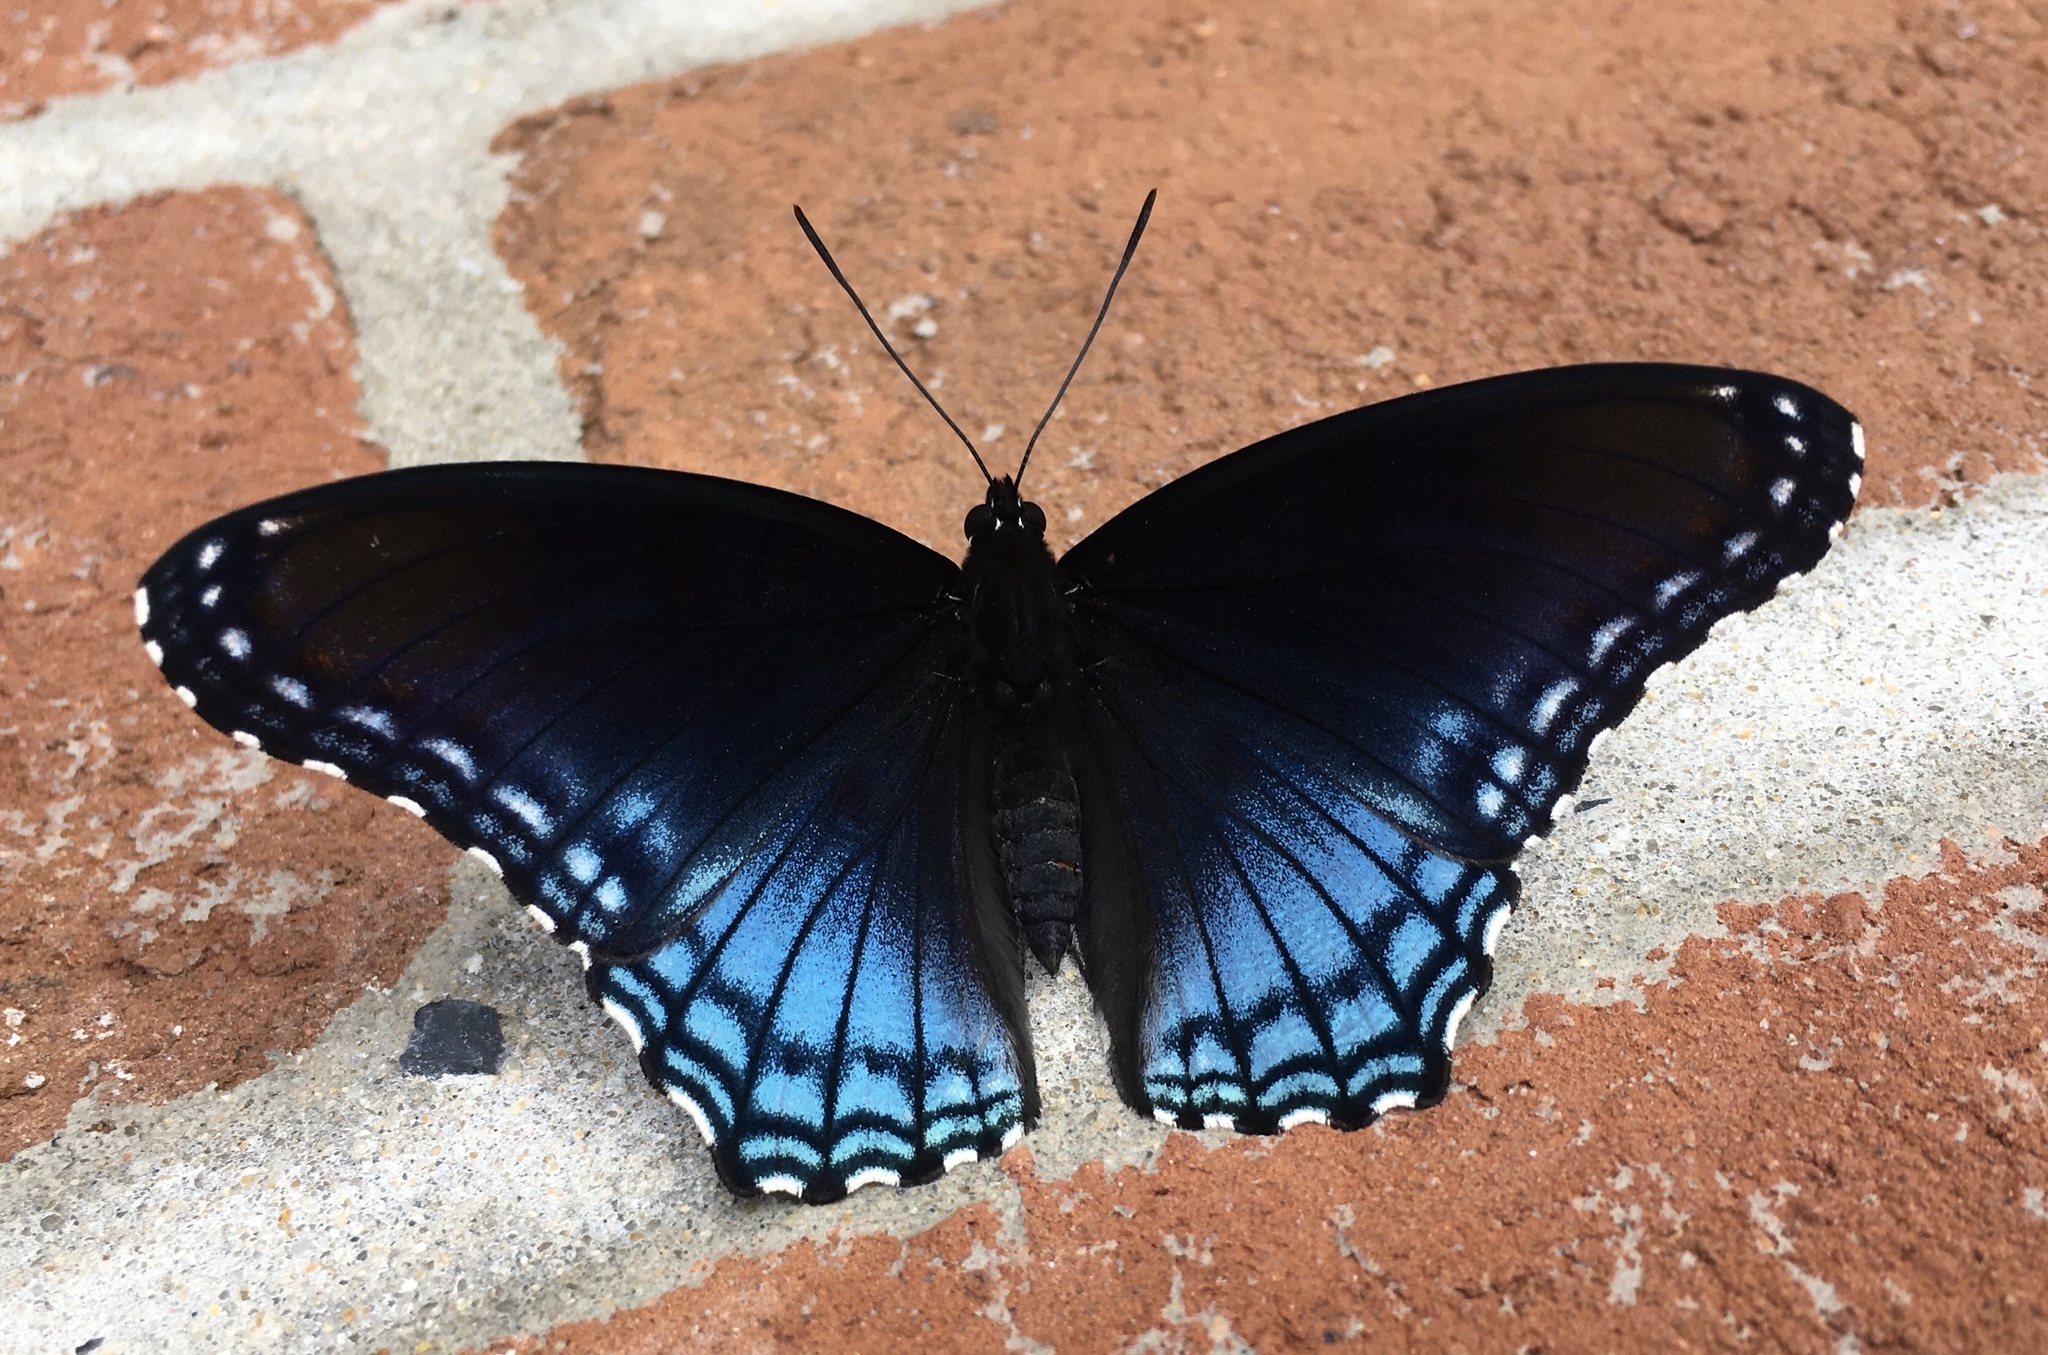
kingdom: Animalia
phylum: Arthropoda
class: Insecta
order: Lepidoptera
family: Nymphalidae
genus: Limenitis
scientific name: Limenitis astyanax
